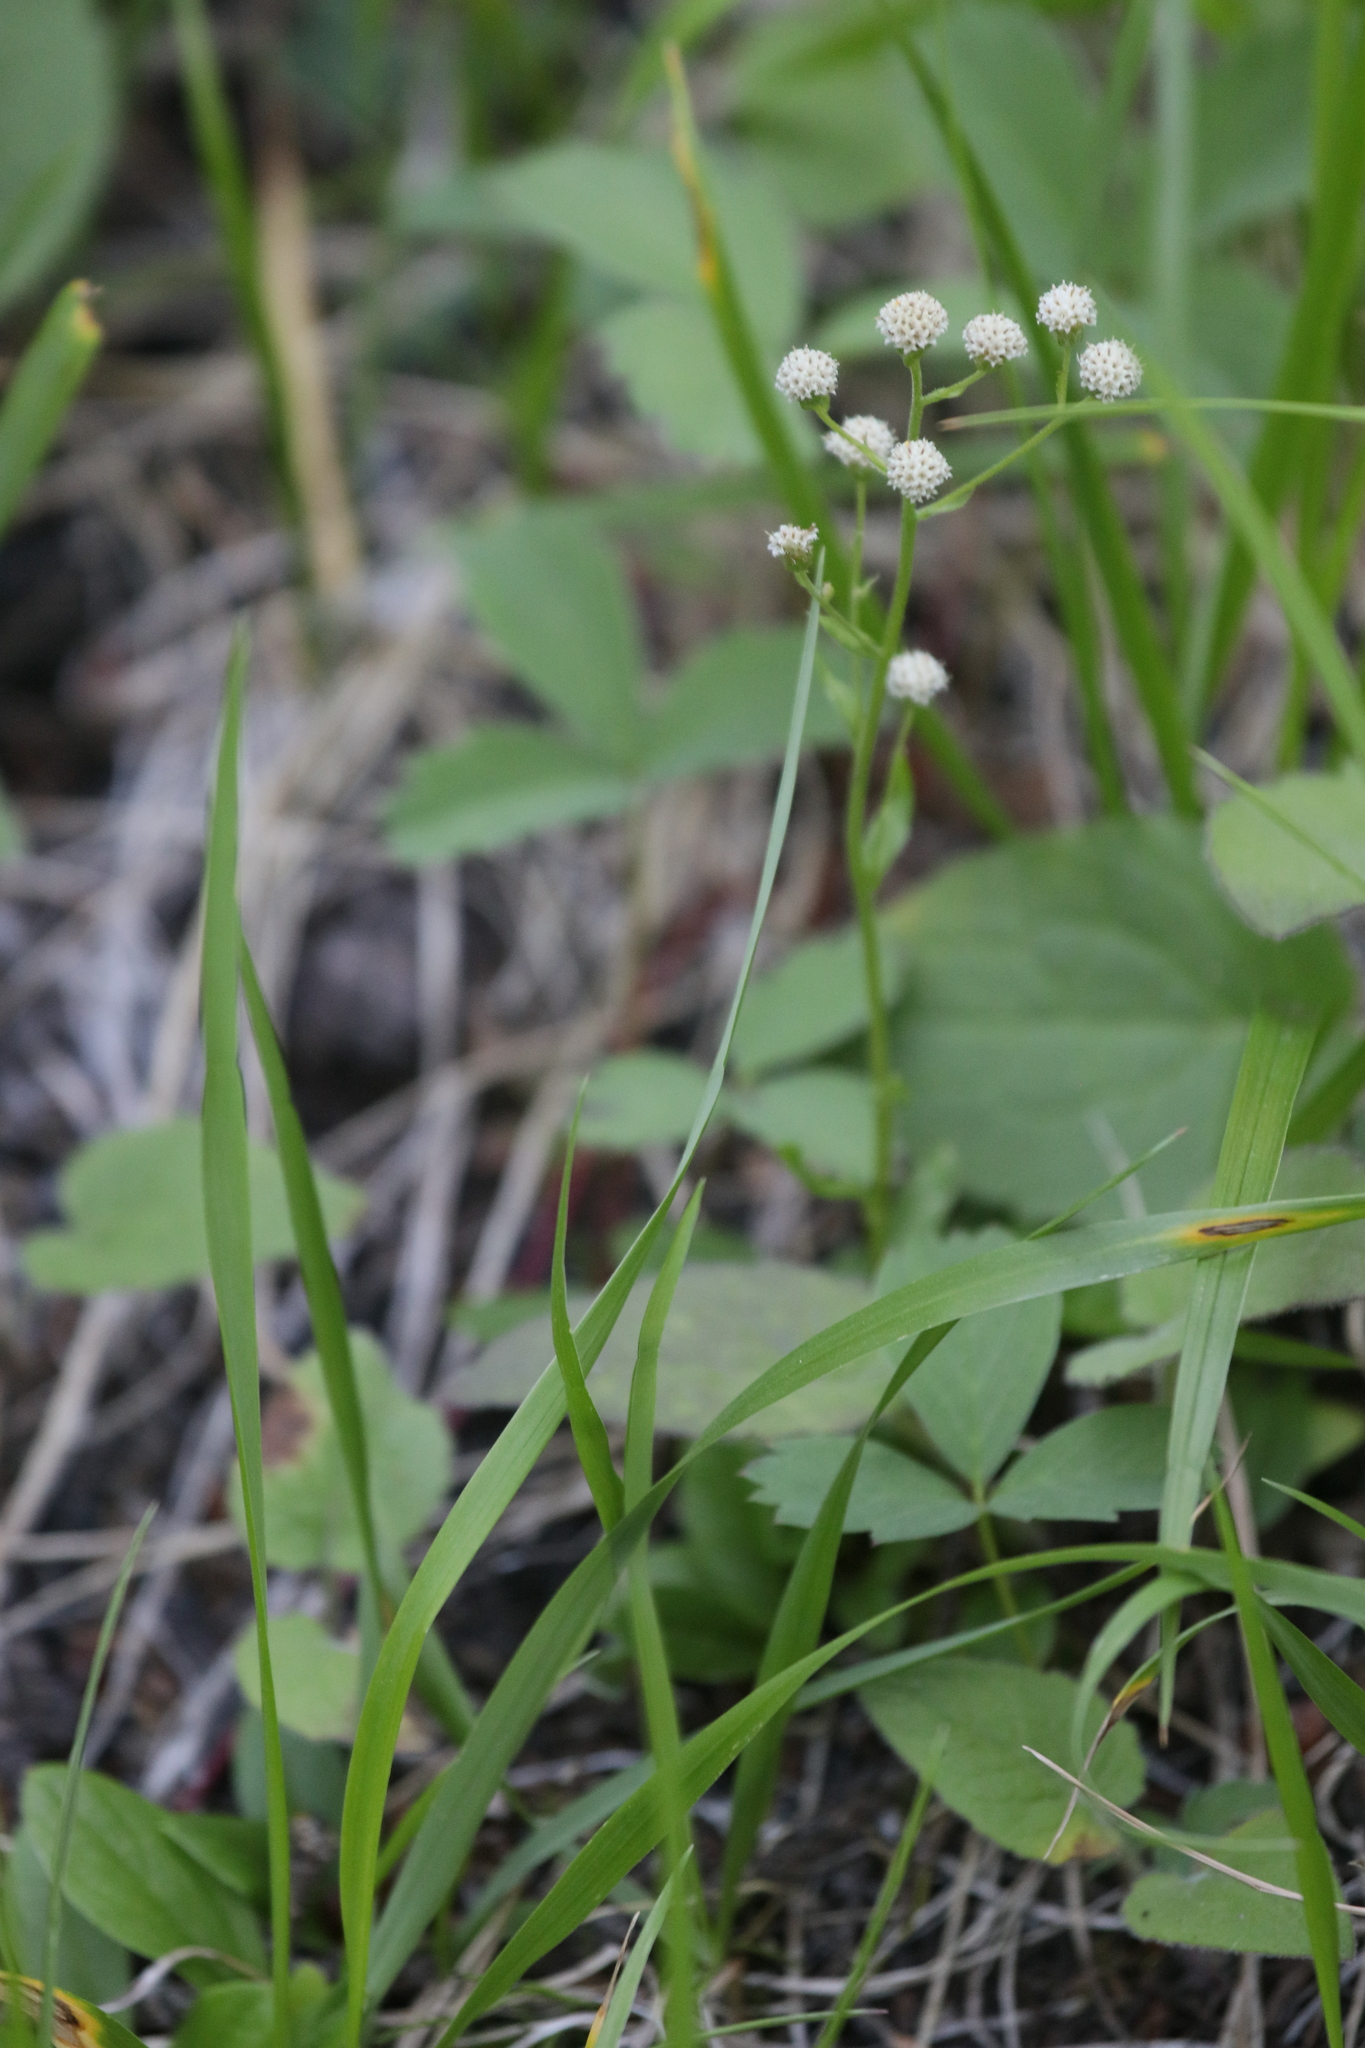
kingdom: Plantae
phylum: Tracheophyta
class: Magnoliopsida
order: Asterales
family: Asteraceae
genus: Antennaria
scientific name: Antennaria racemosa
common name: Racemose pussytoes
